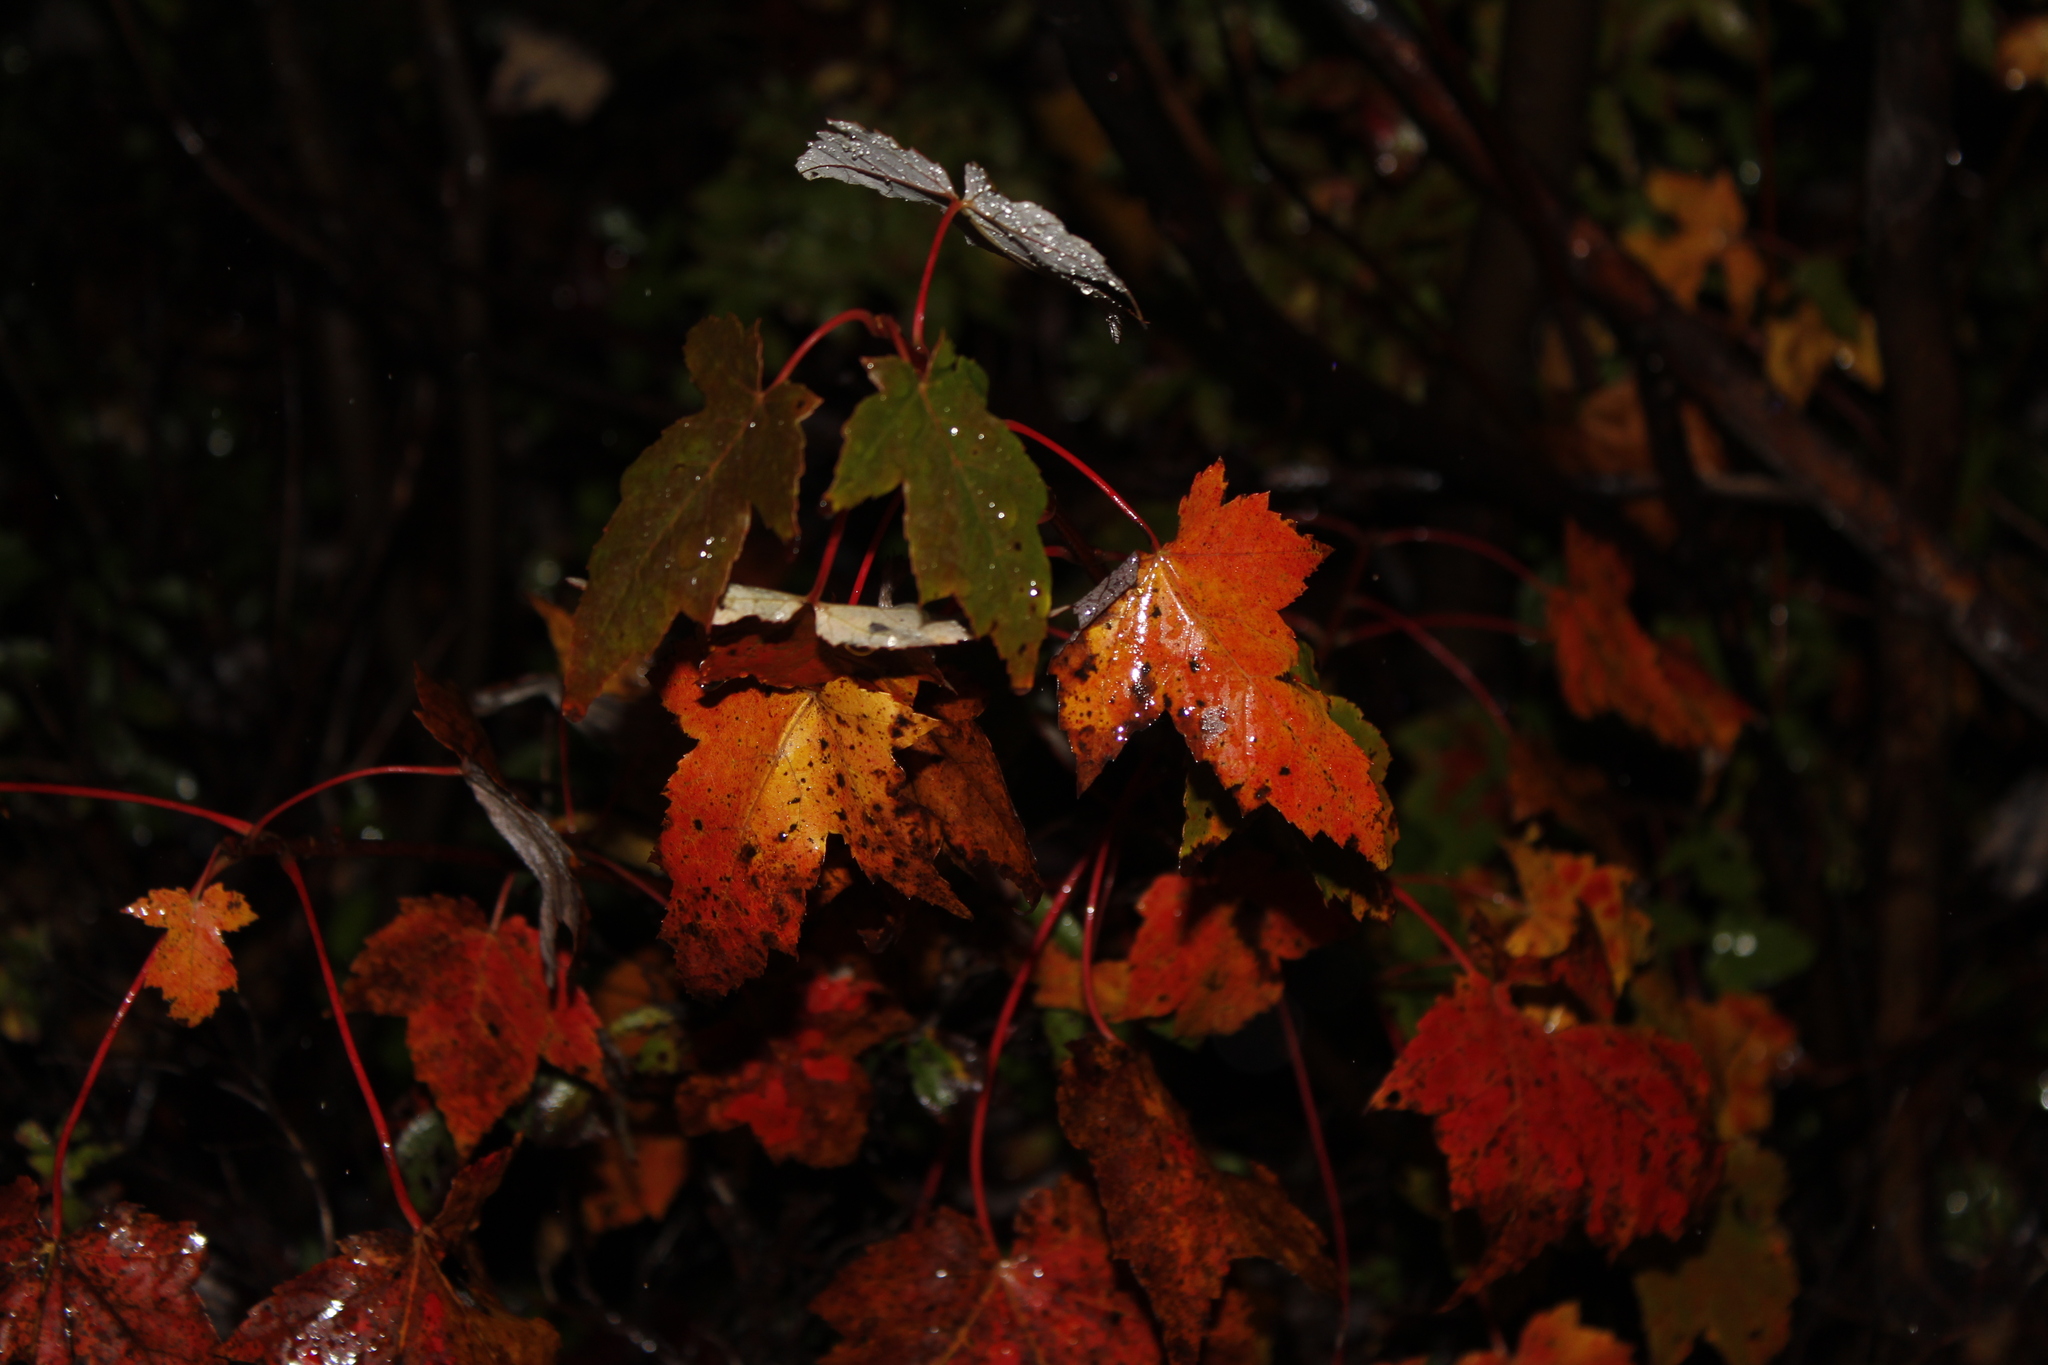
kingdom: Plantae
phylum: Tracheophyta
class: Magnoliopsida
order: Sapindales
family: Sapindaceae
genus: Acer
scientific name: Acer rubrum
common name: Red maple
